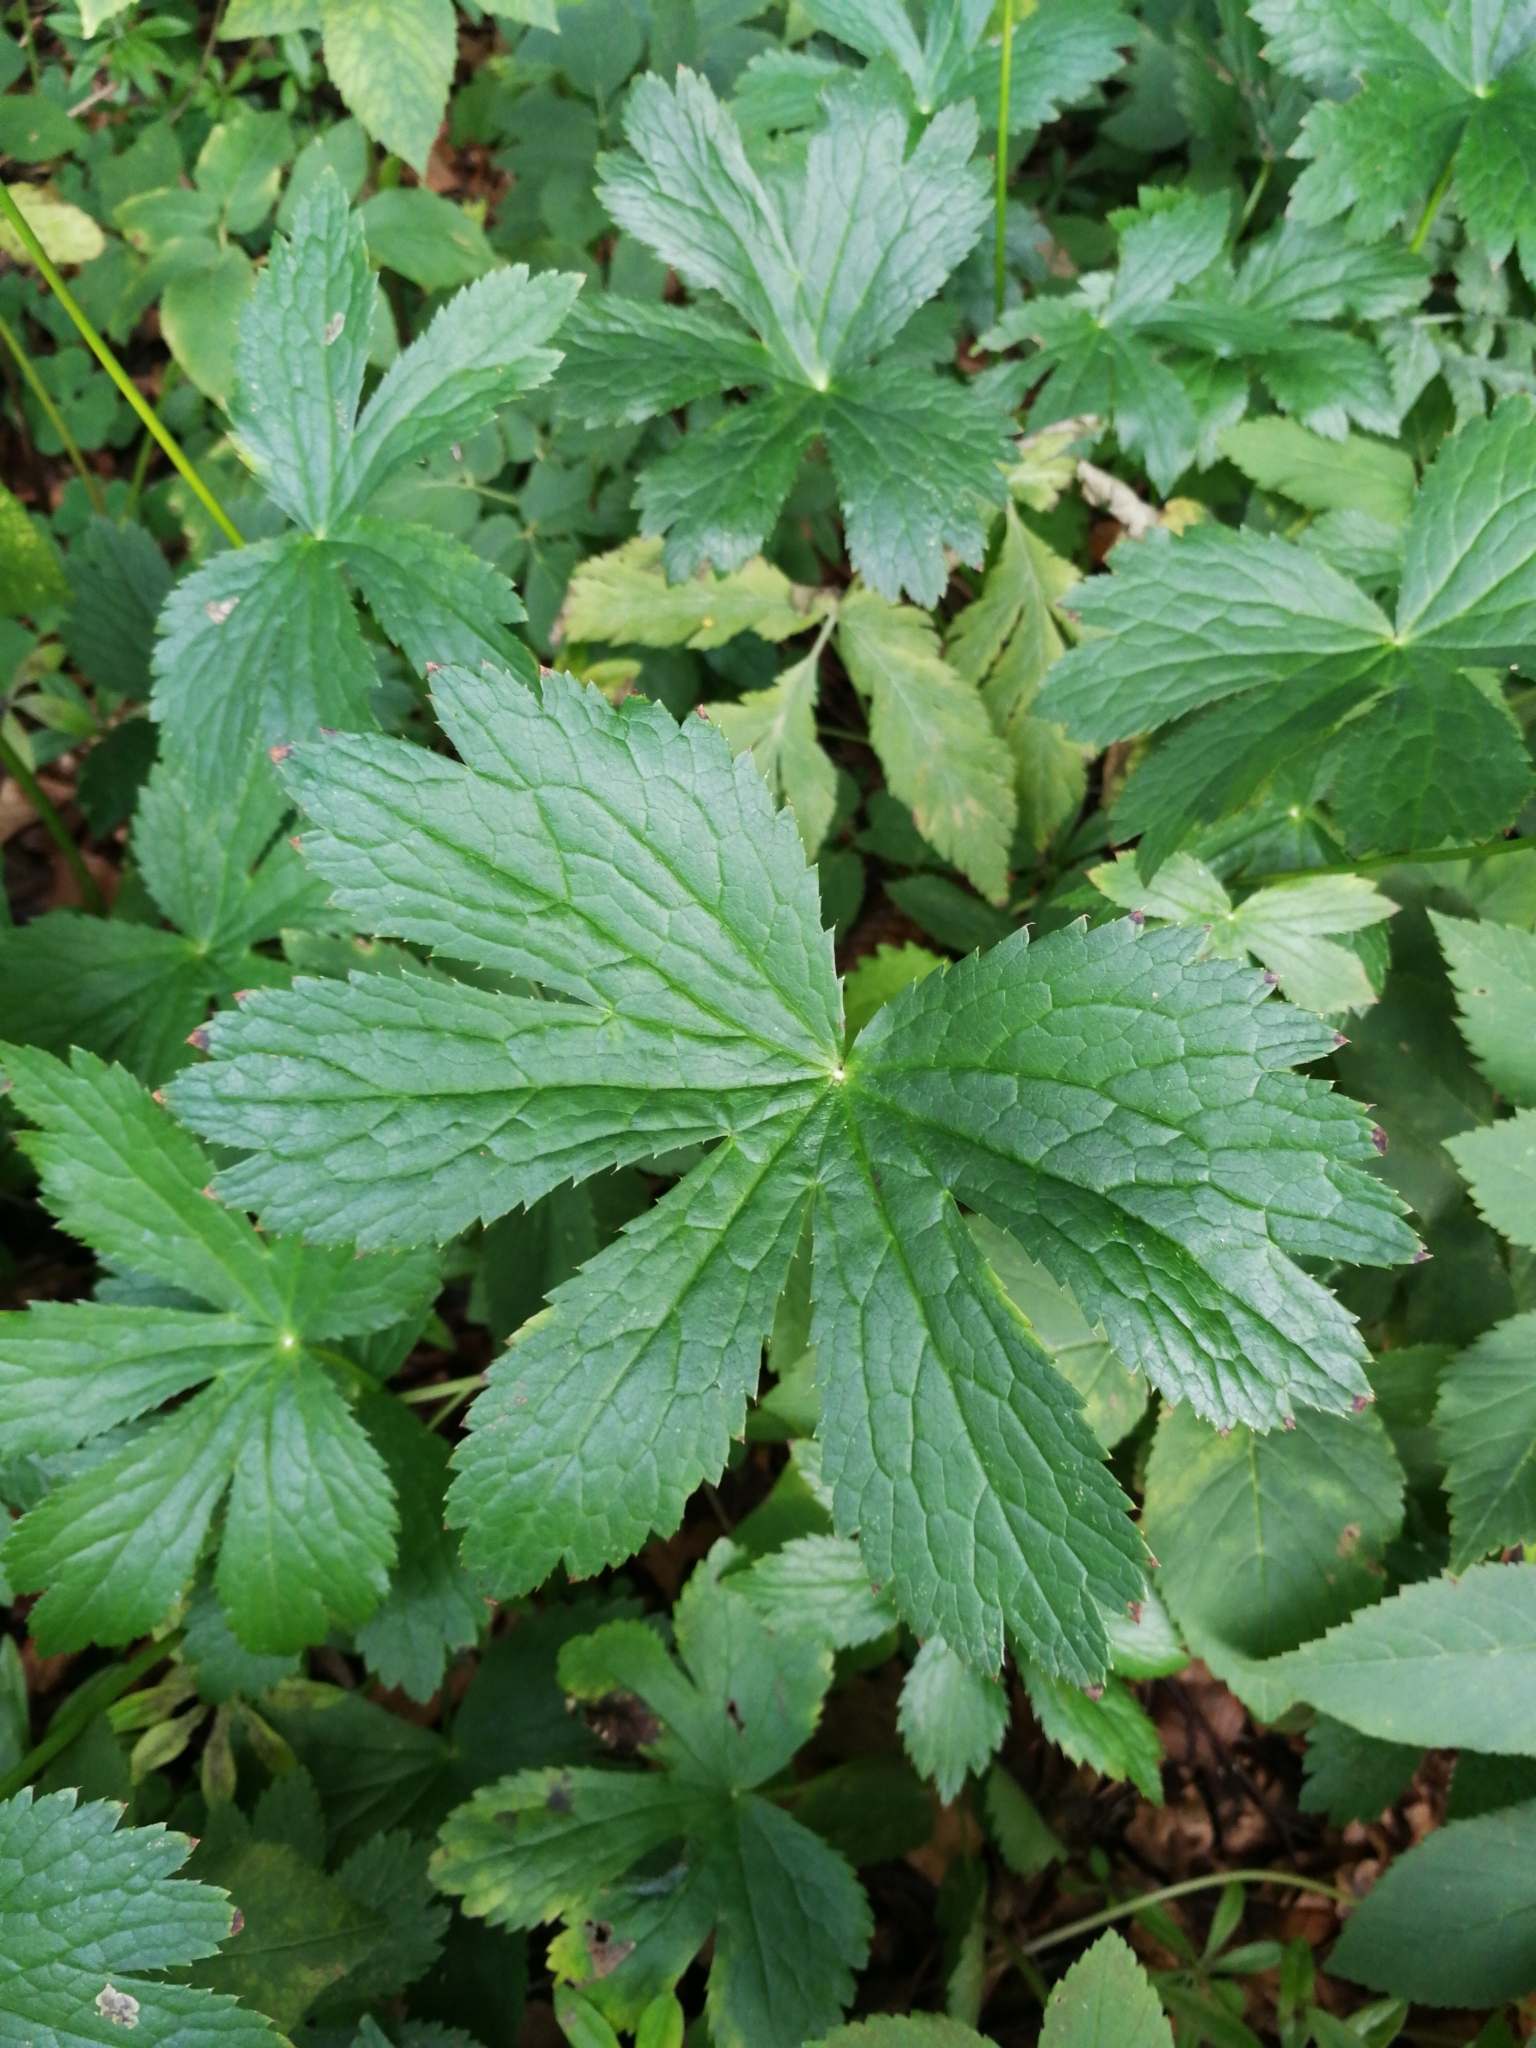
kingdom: Plantae
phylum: Tracheophyta
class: Magnoliopsida
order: Apiales
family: Apiaceae
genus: Astrantia
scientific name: Astrantia major
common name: Greater masterwort
